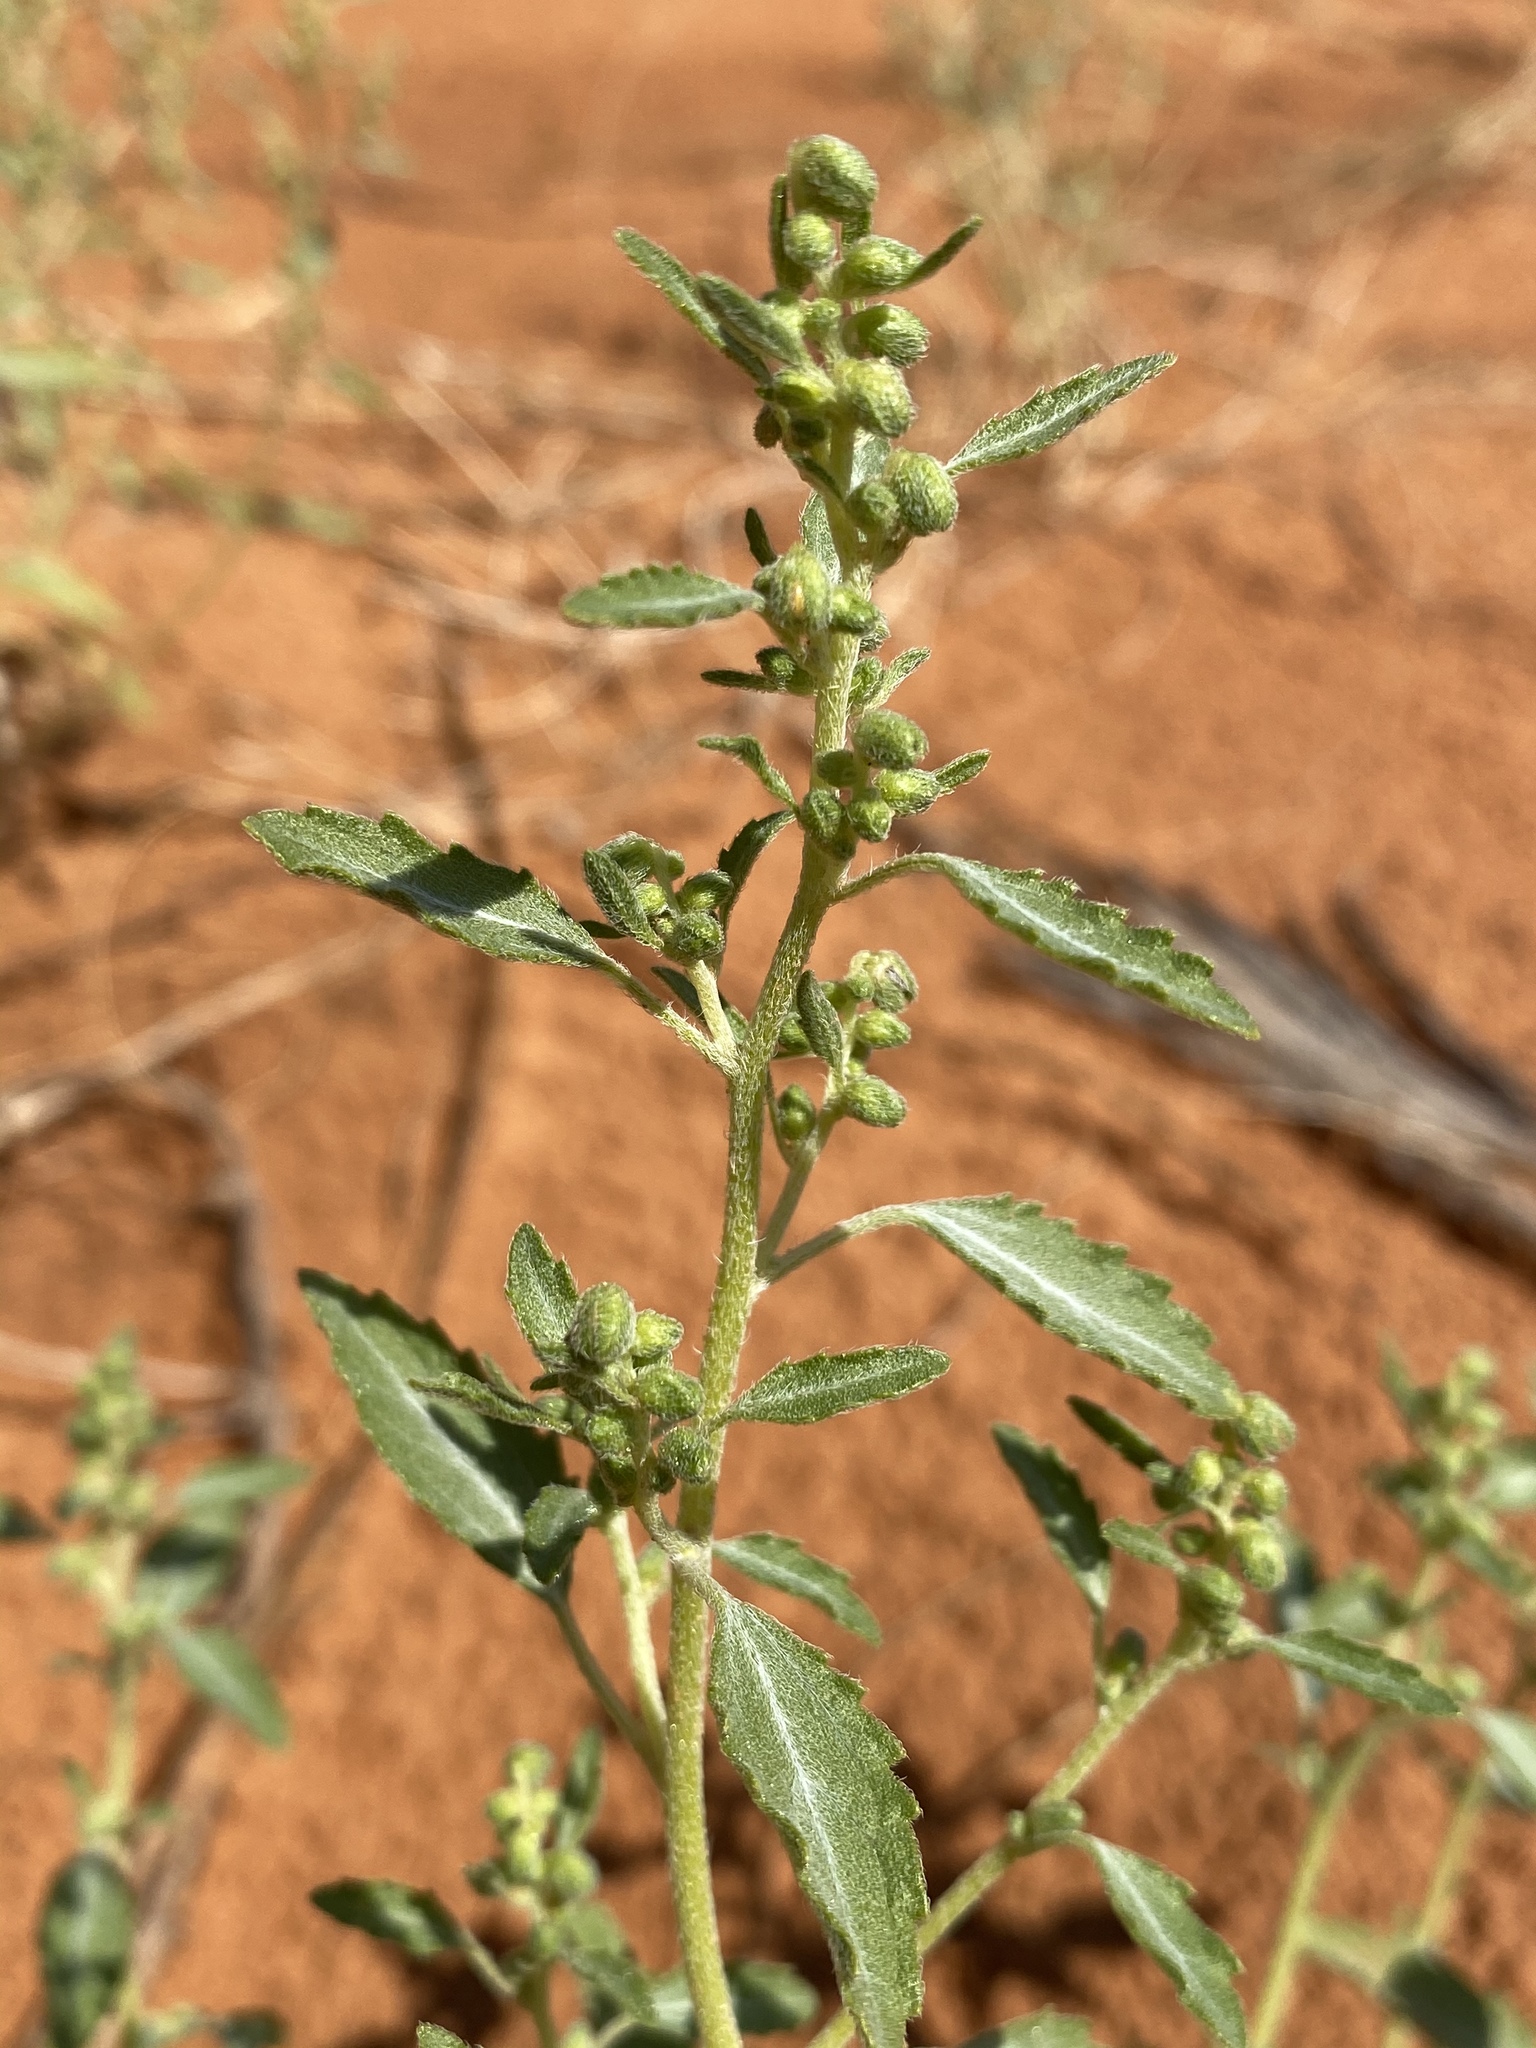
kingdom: Plantae
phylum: Tracheophyta
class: Magnoliopsida
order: Asterales
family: Asteraceae
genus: Dicoria
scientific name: Dicoria canescens
